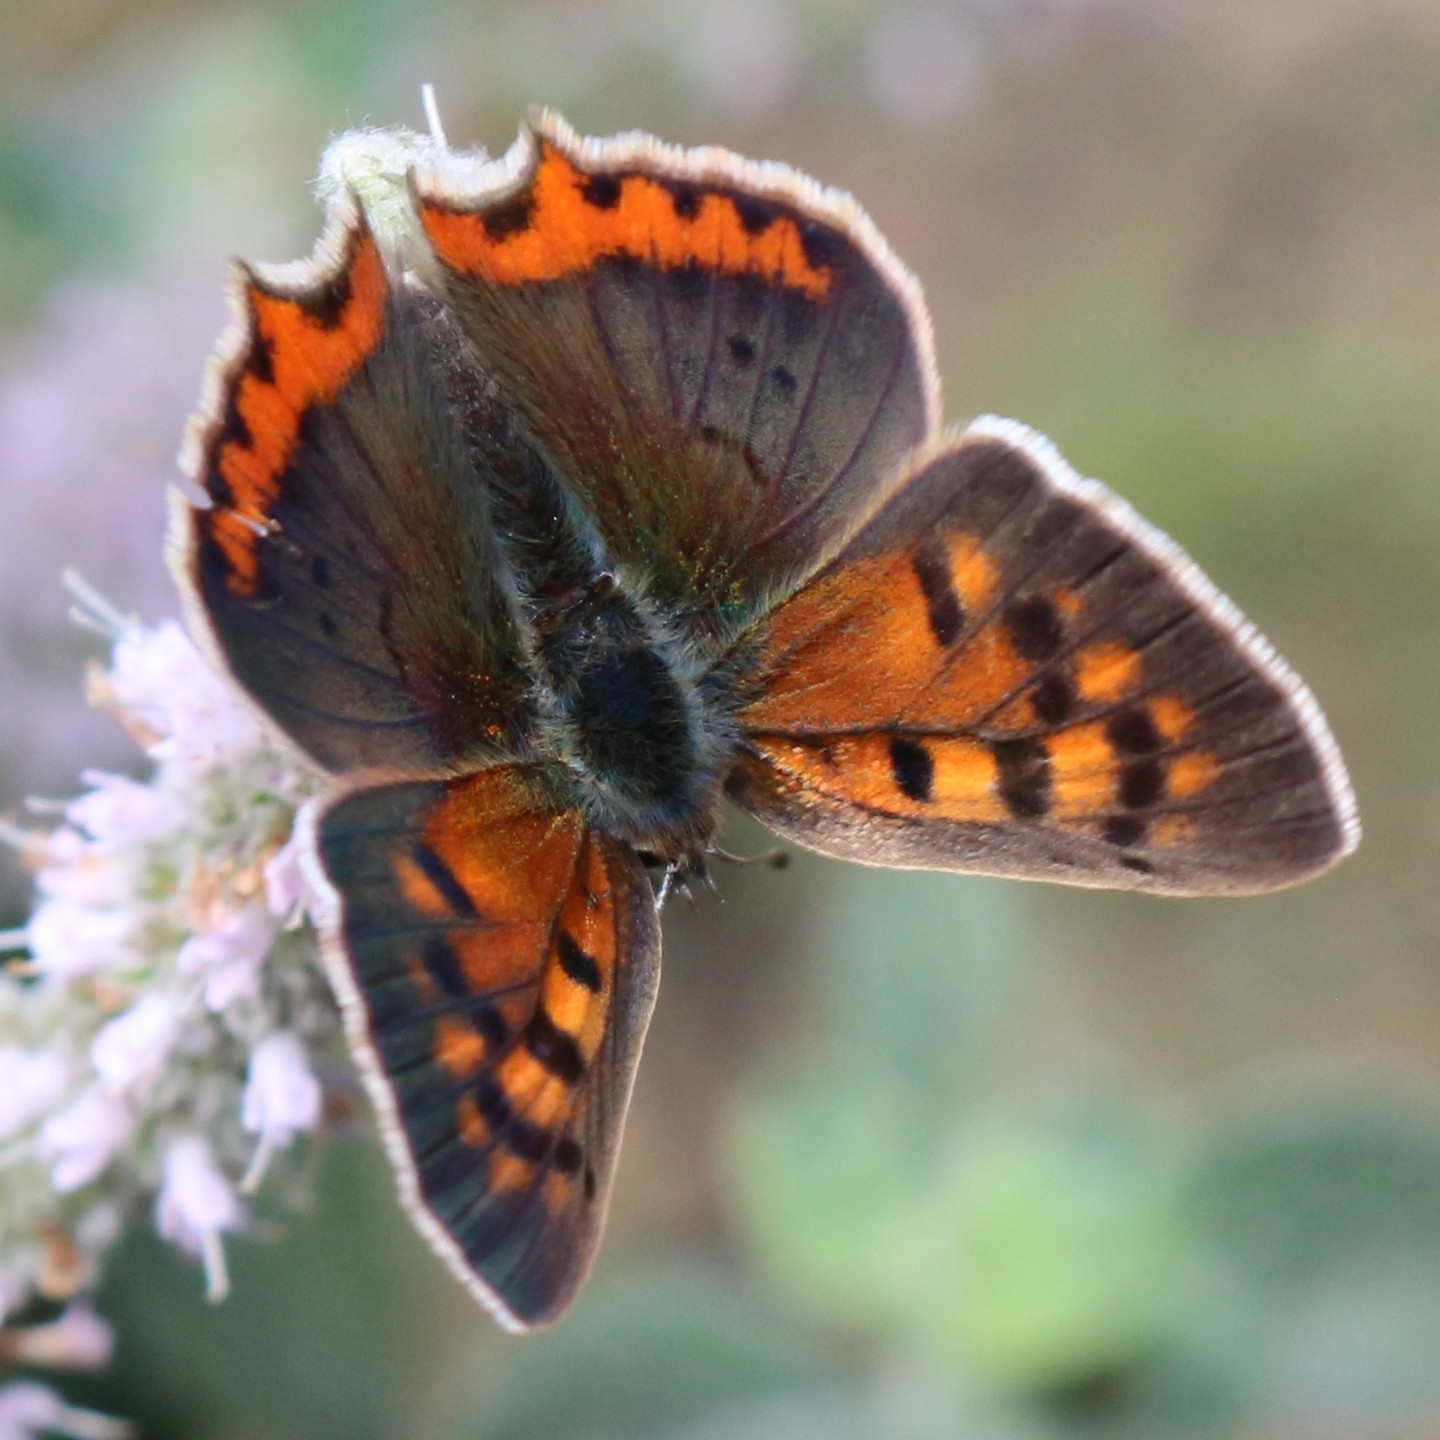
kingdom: Animalia
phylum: Arthropoda
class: Insecta
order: Lepidoptera
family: Lycaenidae
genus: Lycaena
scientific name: Lycaena phlaeas
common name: Small copper
